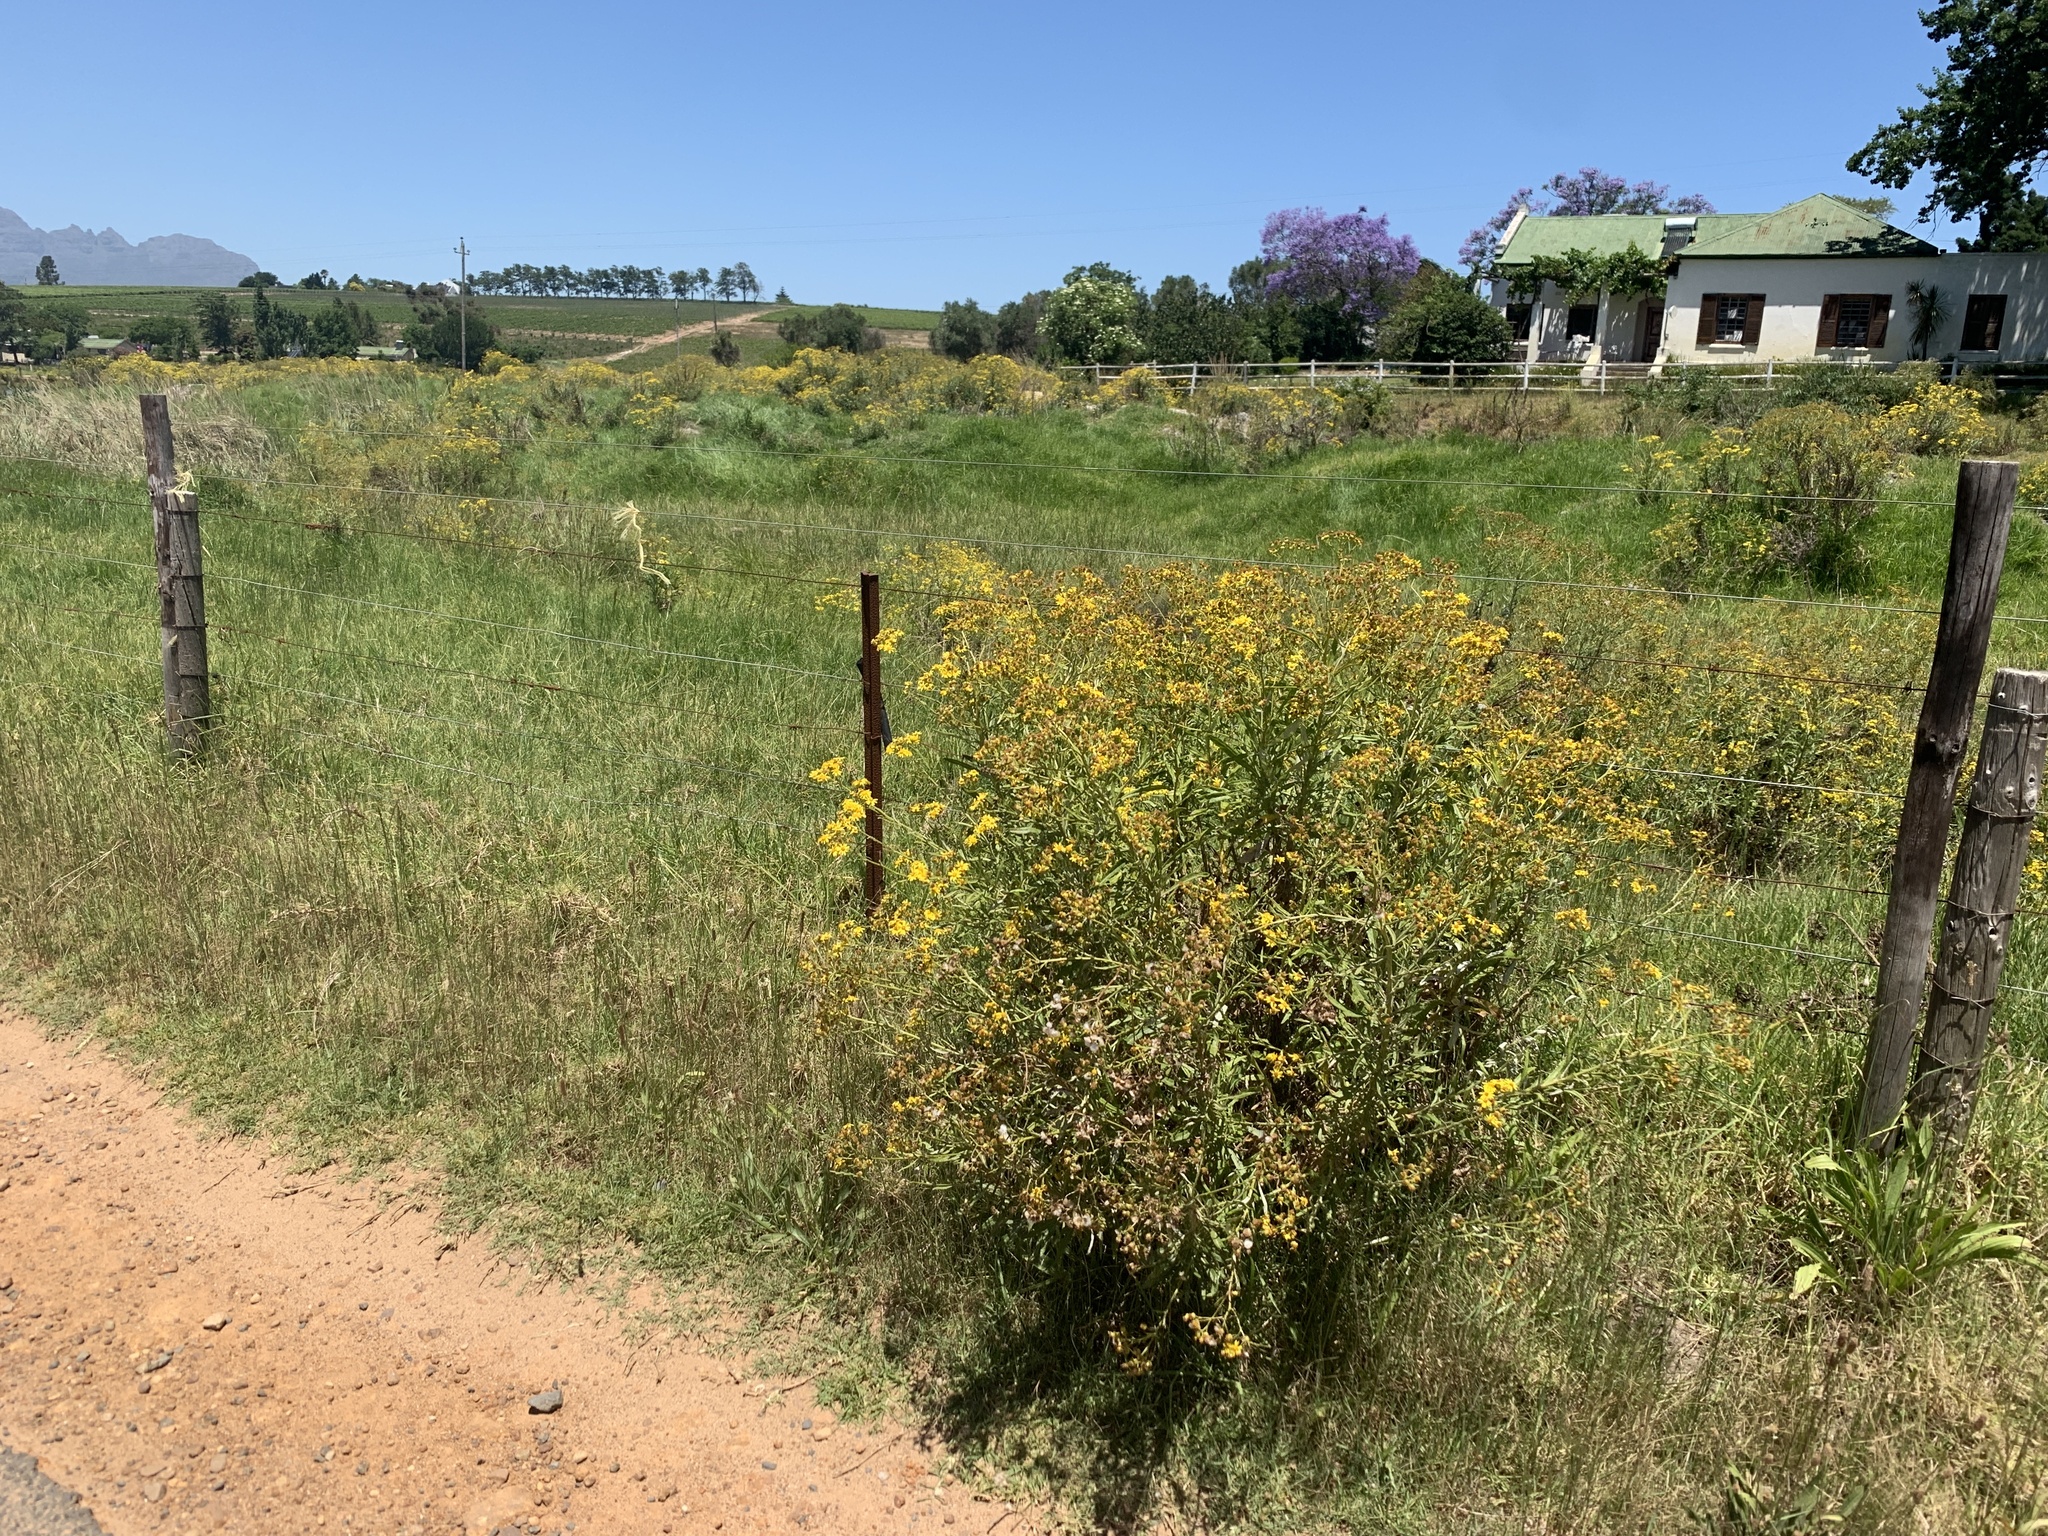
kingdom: Plantae
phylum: Tracheophyta
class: Magnoliopsida
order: Asterales
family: Asteraceae
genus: Senecio
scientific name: Senecio pterophorus
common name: Shoddy ragwort
